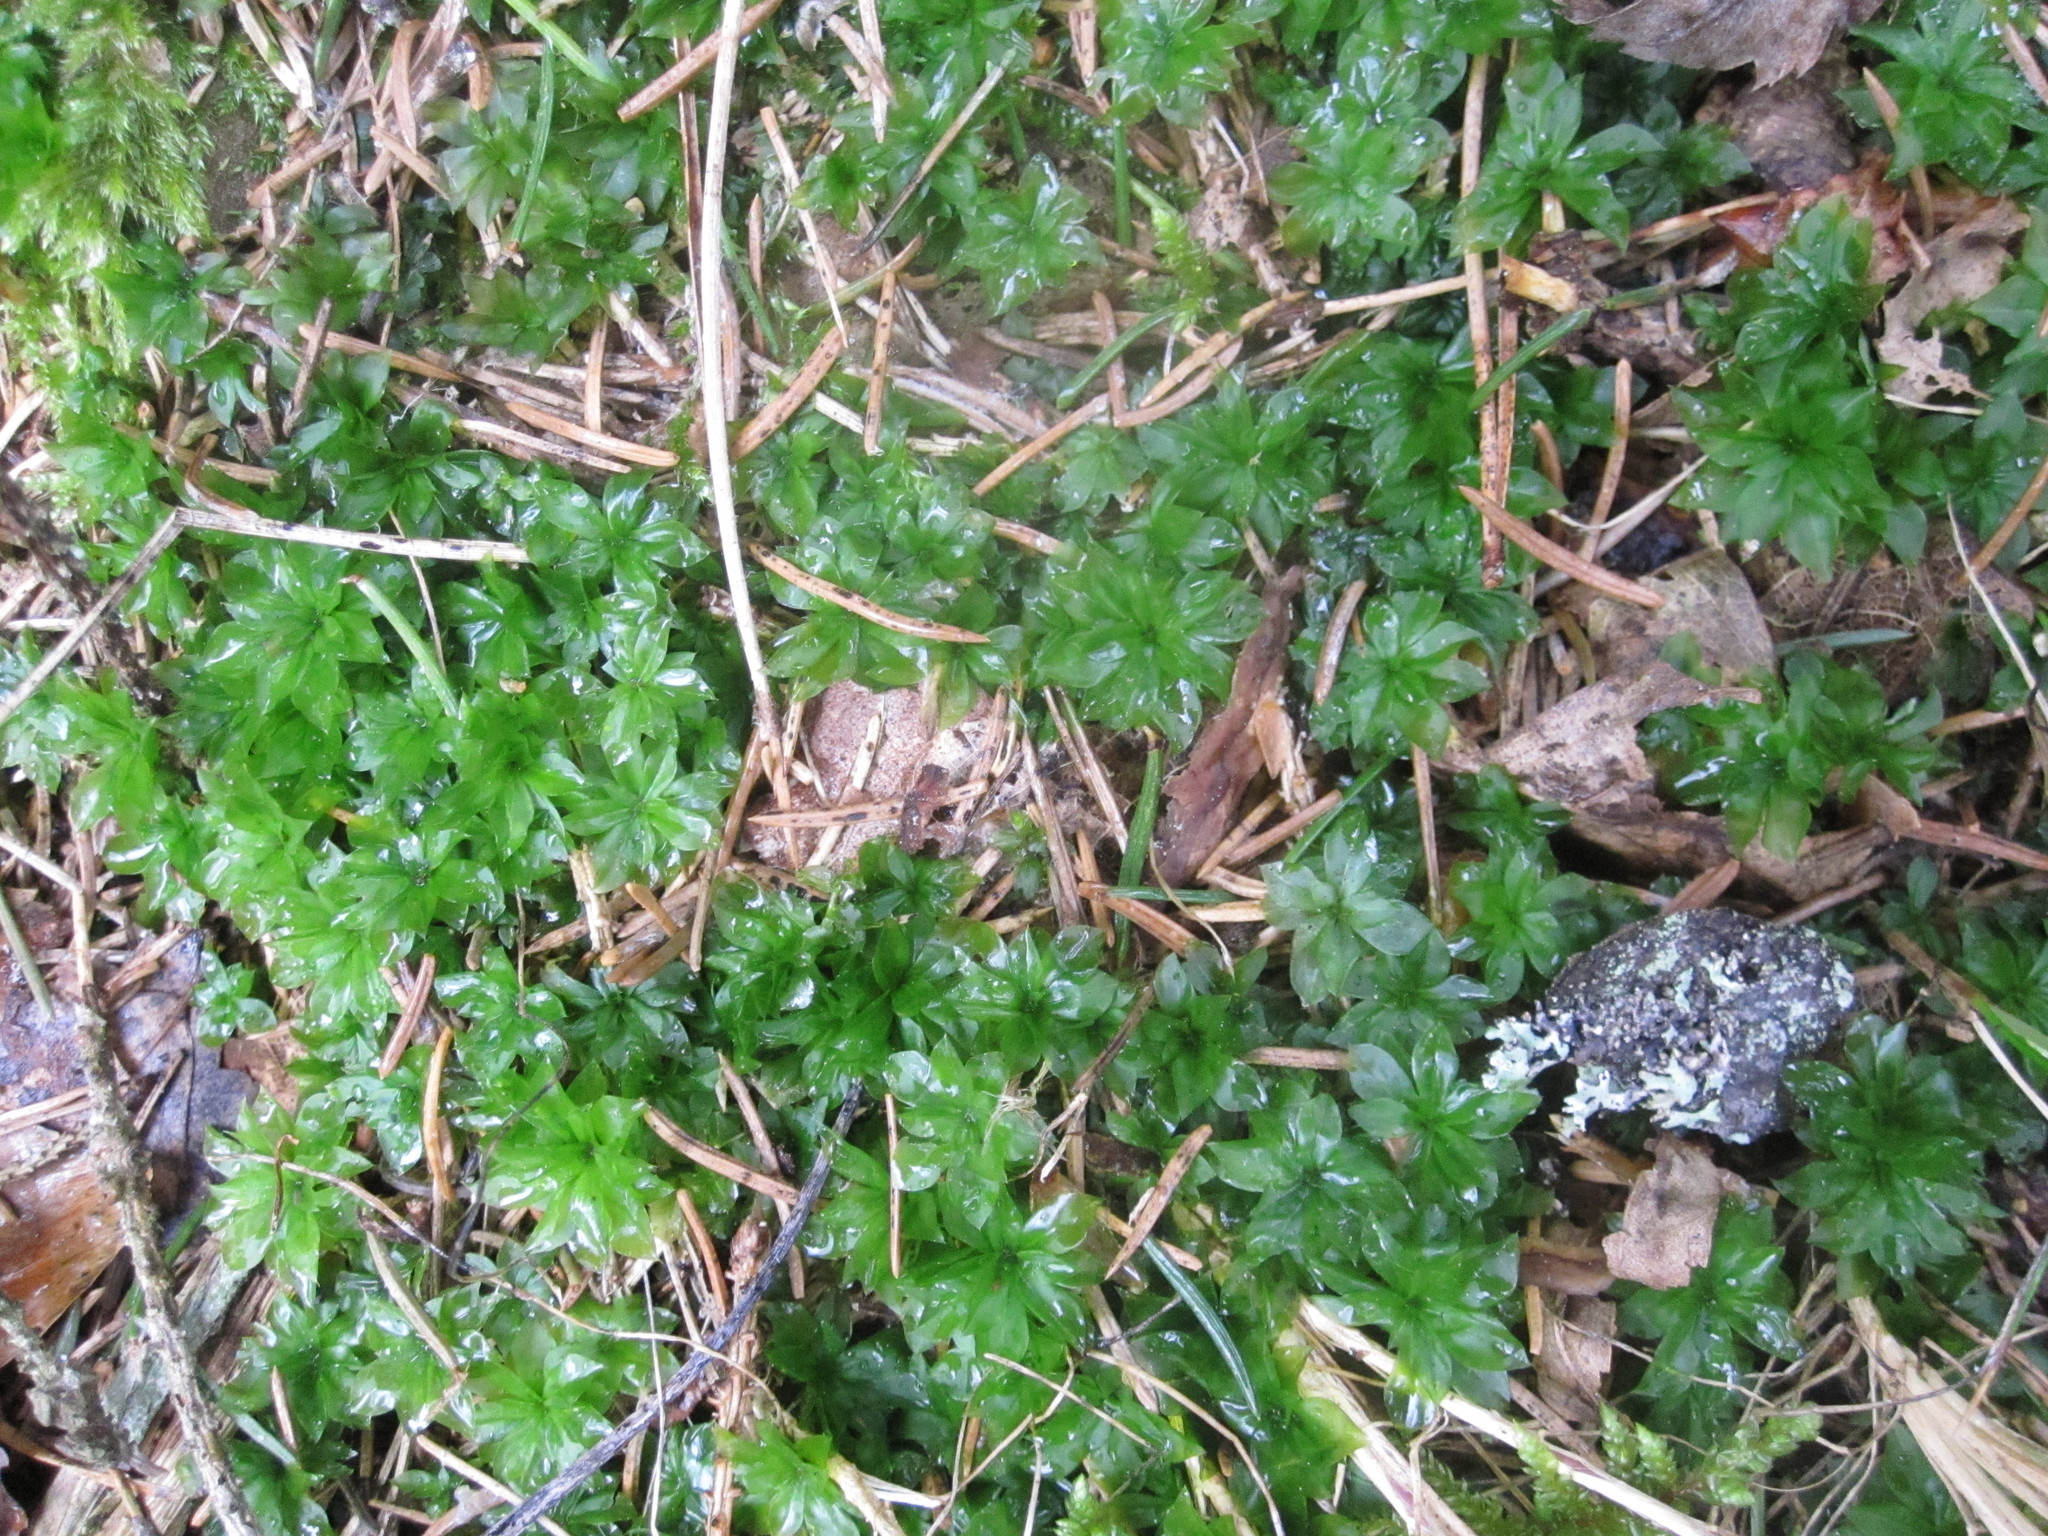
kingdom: Plantae
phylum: Bryophyta
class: Bryopsida
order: Bryales
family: Bryaceae
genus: Rhodobryum
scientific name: Rhodobryum roseum
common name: Rose-moss
